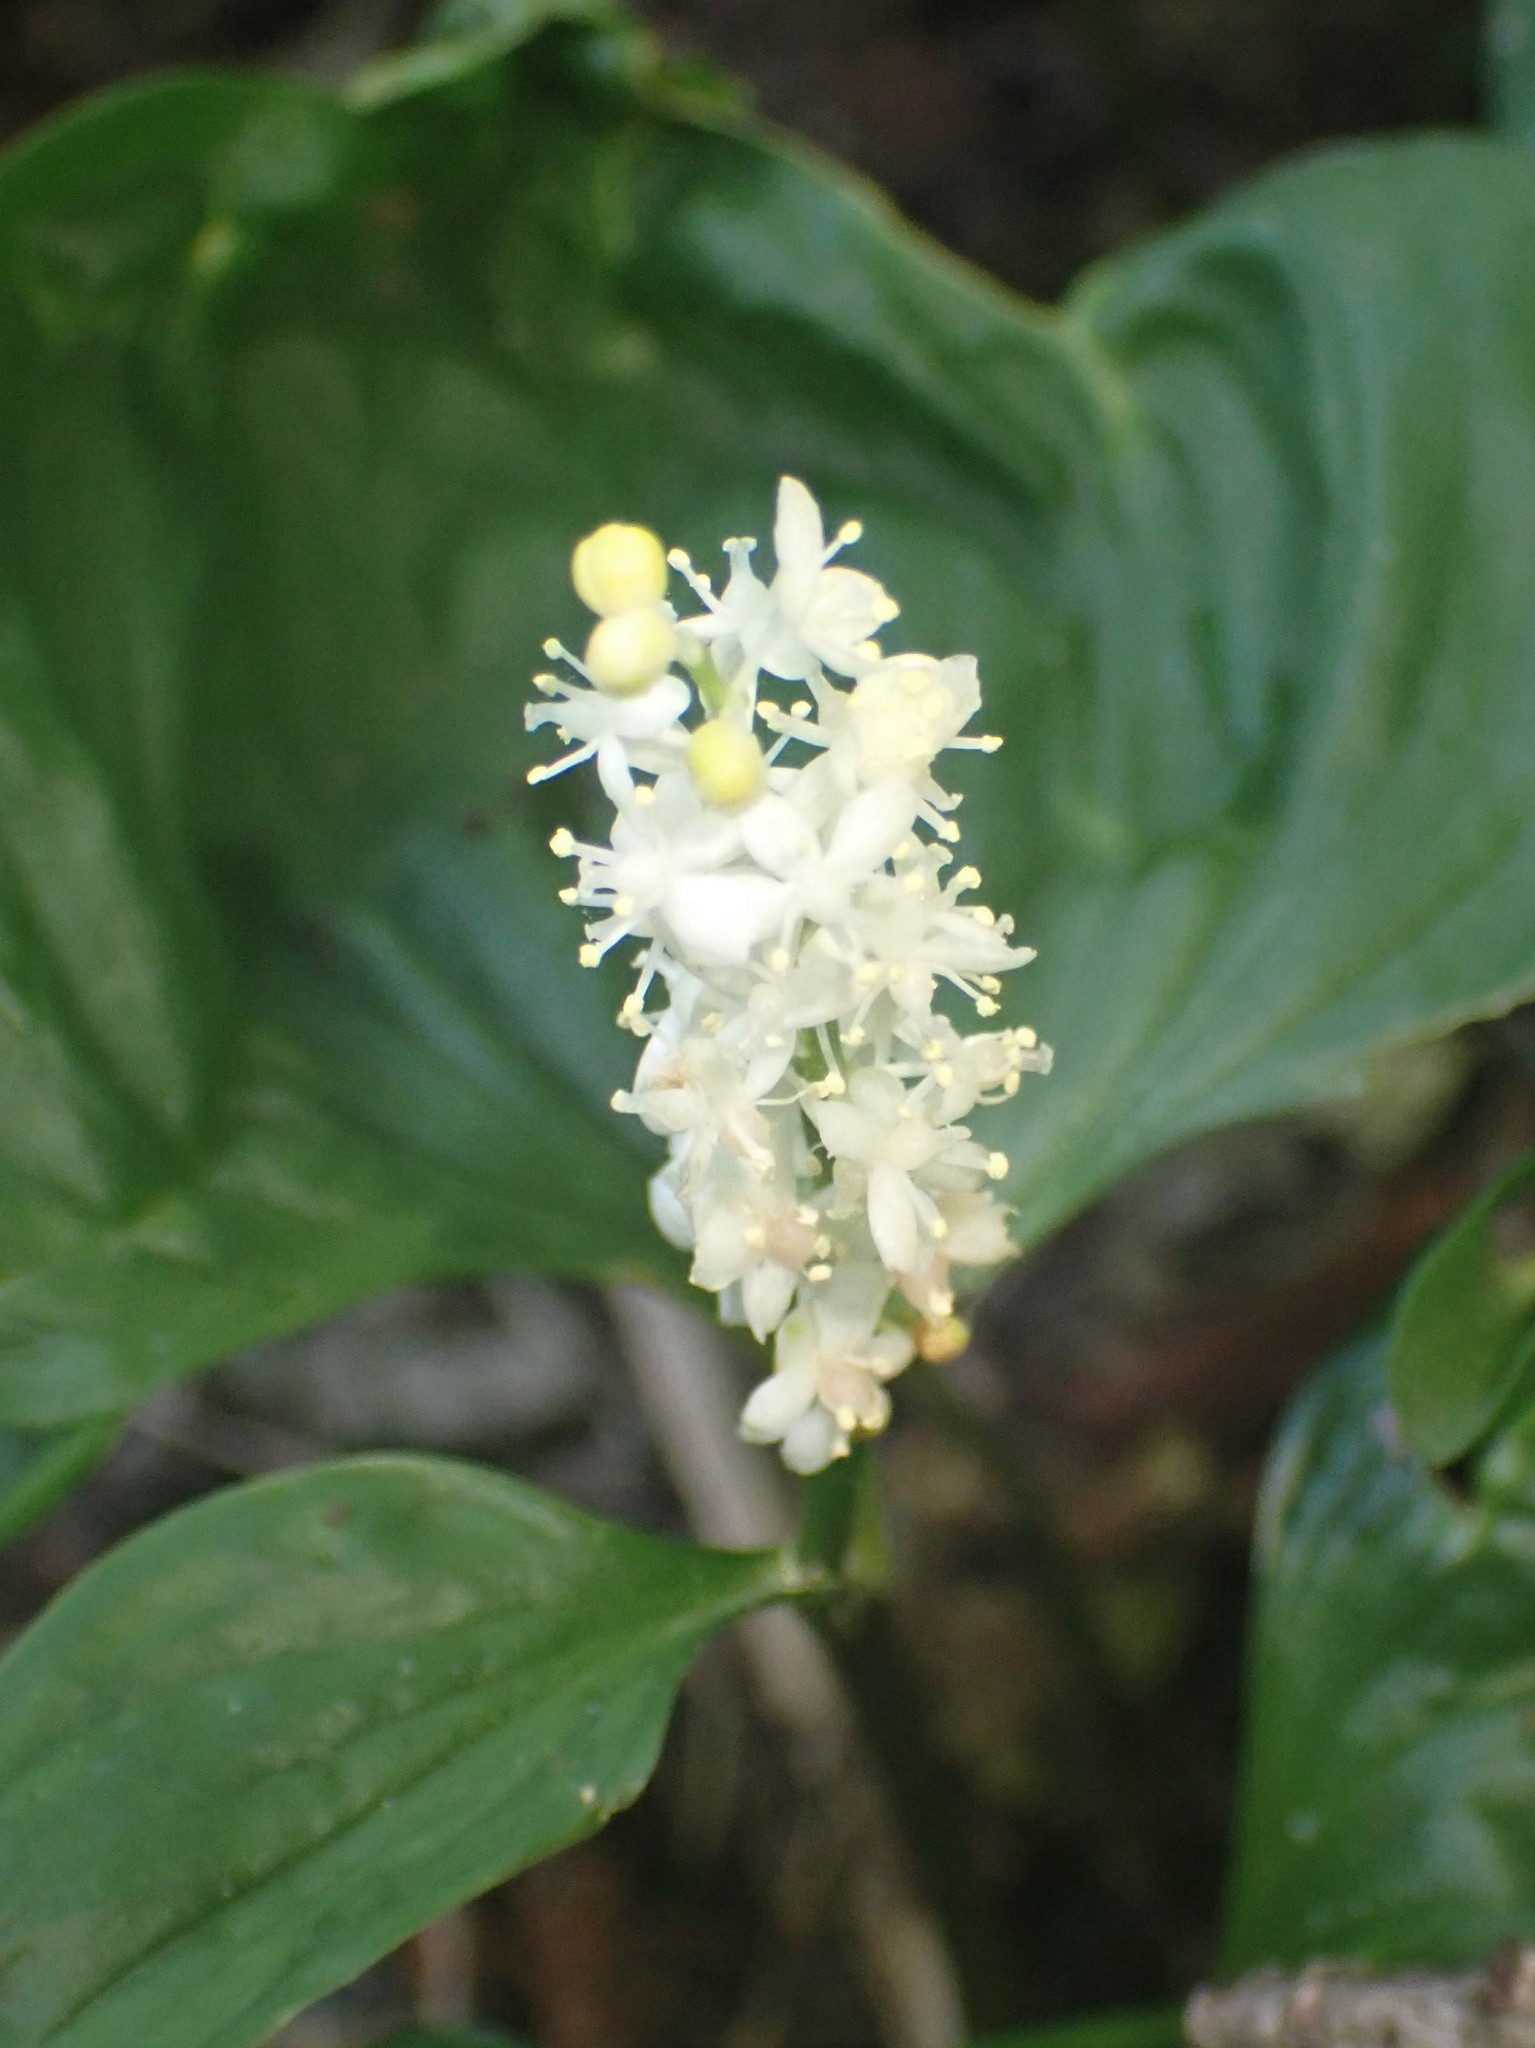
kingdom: Plantae
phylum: Tracheophyta
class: Liliopsida
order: Asparagales
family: Asparagaceae
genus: Maianthemum
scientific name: Maianthemum dilatatum
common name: False lily-of-the-valley
